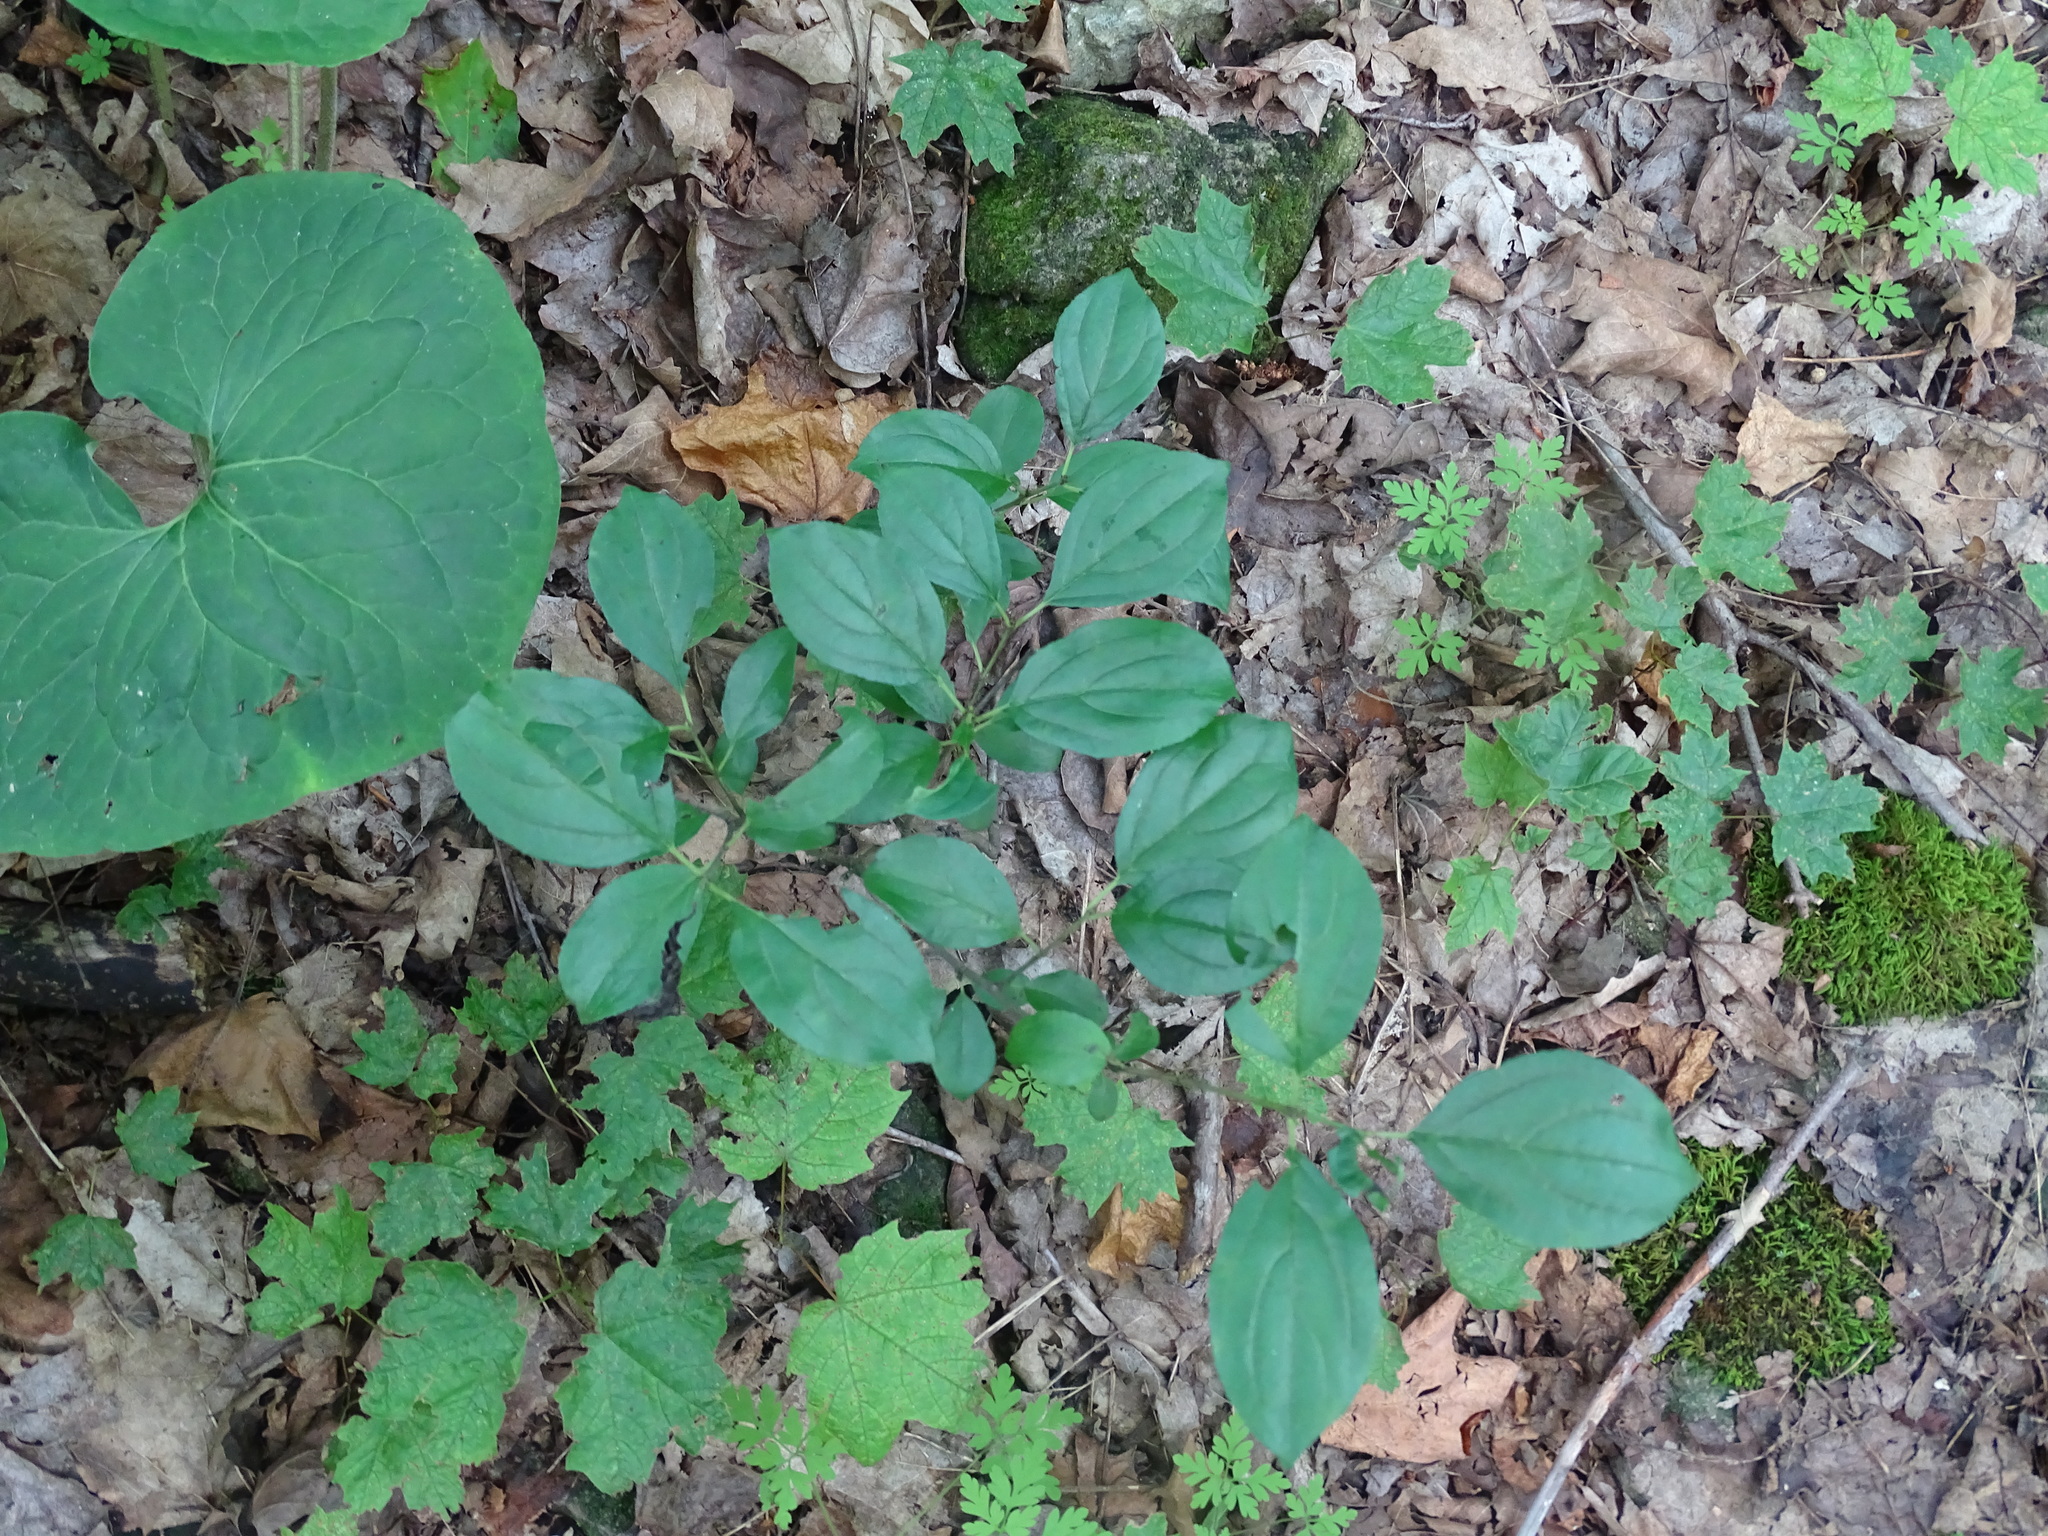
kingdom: Plantae
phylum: Tracheophyta
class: Magnoliopsida
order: Rosales
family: Rhamnaceae
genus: Rhamnus
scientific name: Rhamnus cathartica
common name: Common buckthorn
